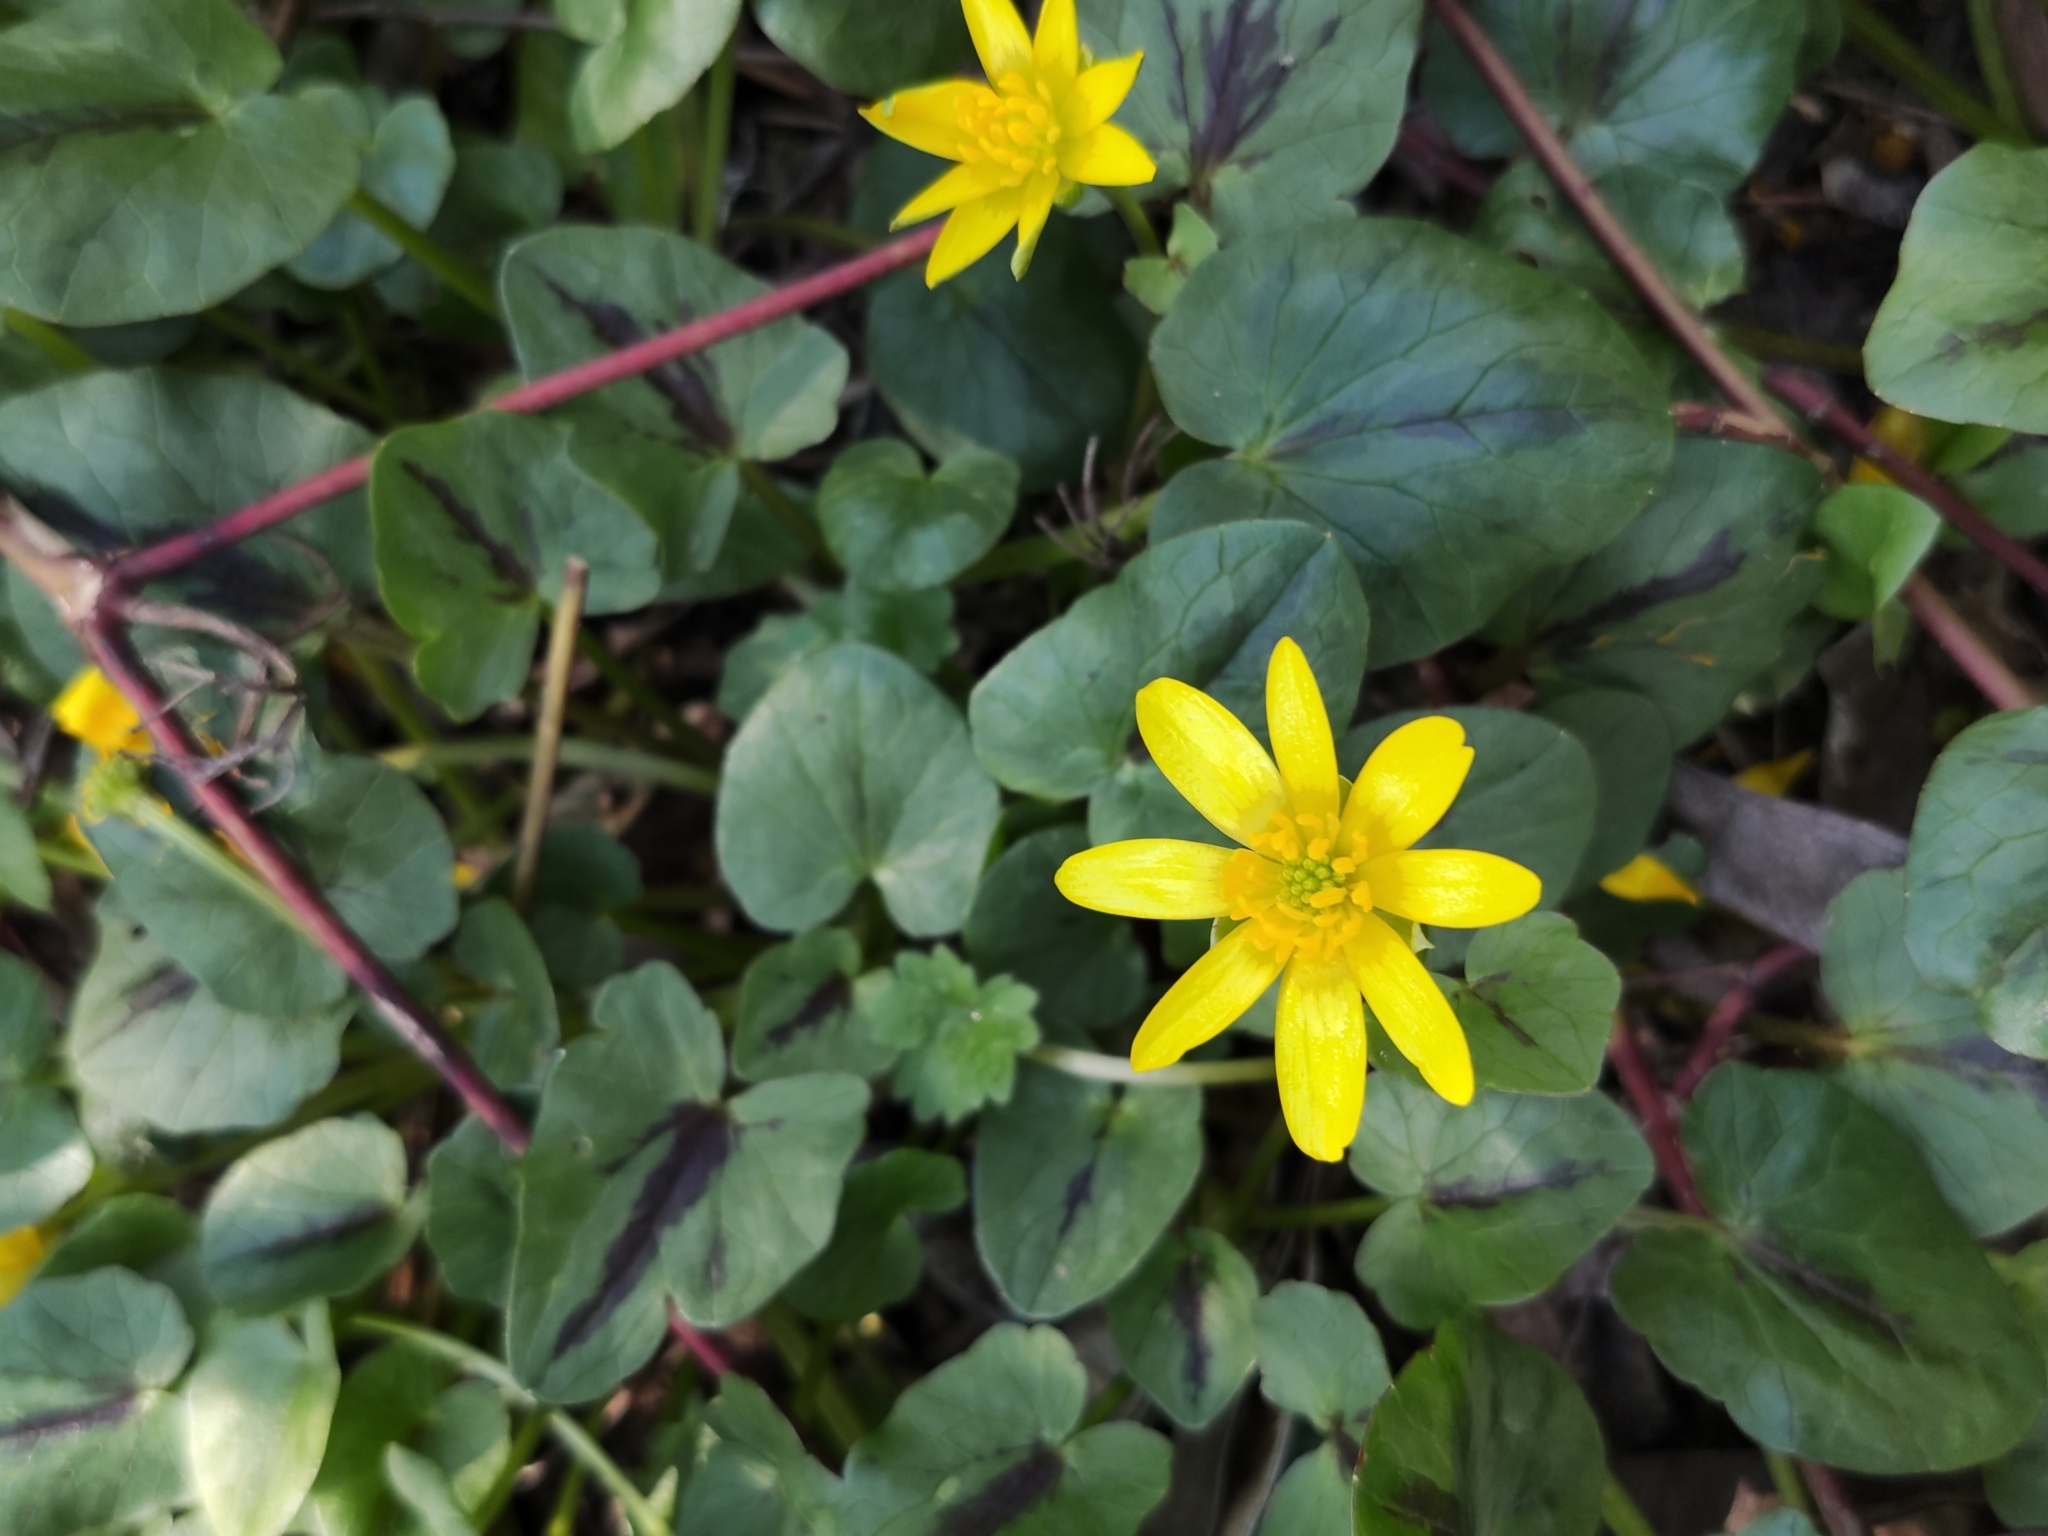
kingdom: Plantae
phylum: Tracheophyta
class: Magnoliopsida
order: Ranunculales
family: Ranunculaceae
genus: Ficaria
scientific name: Ficaria verna
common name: Lesser celandine
